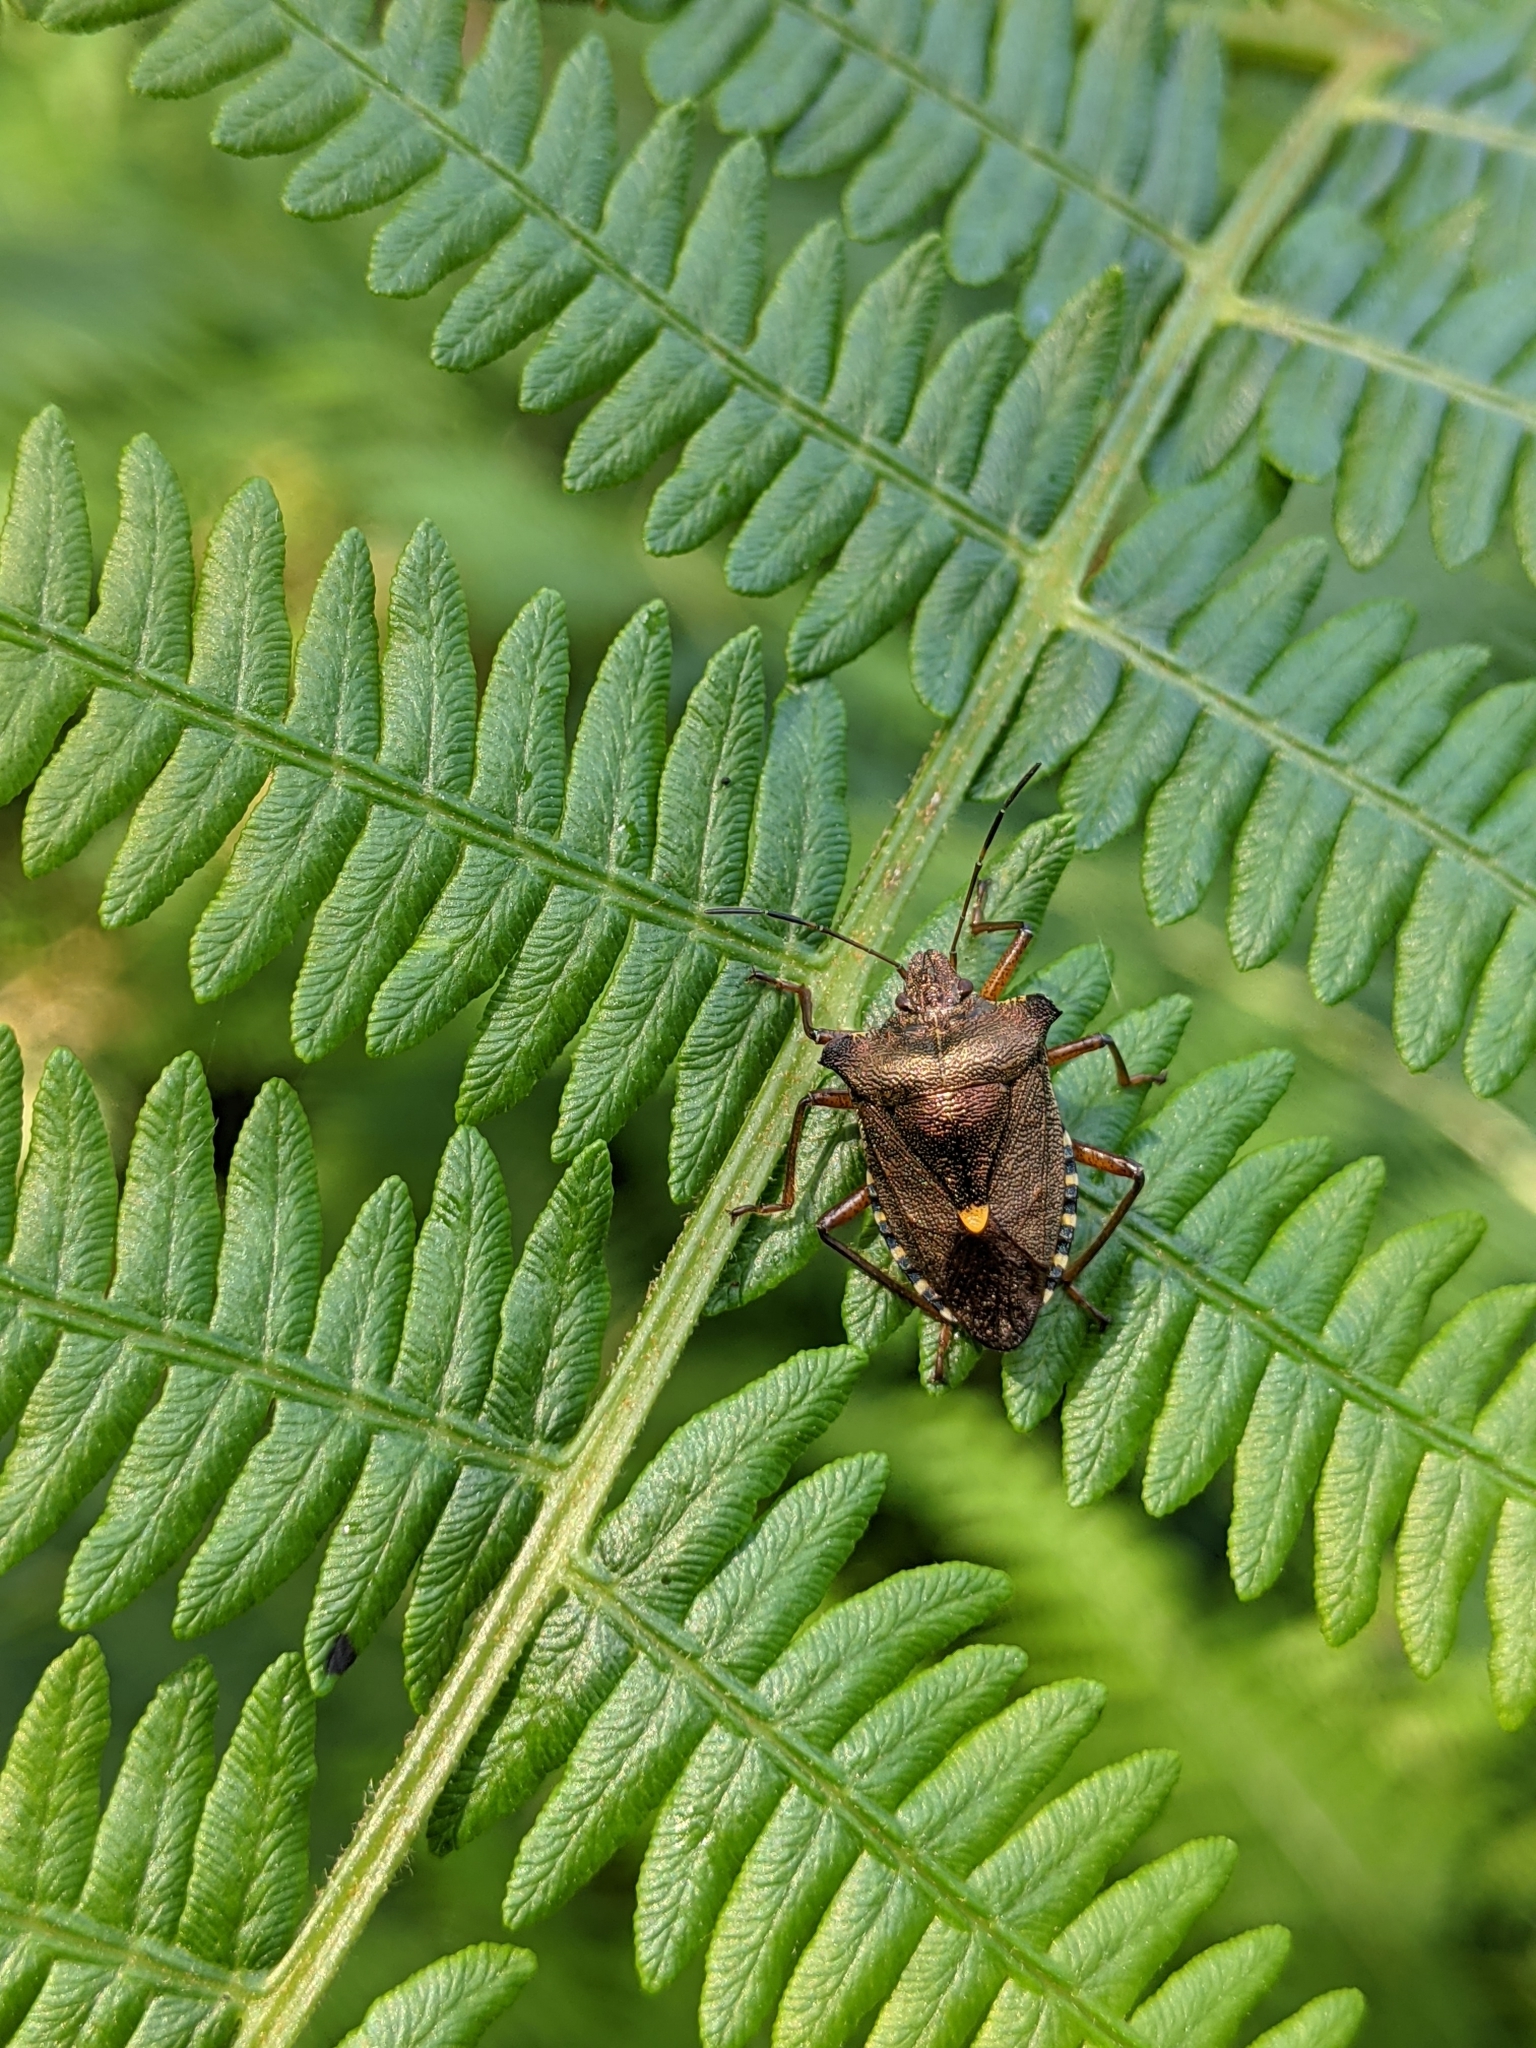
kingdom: Animalia
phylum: Arthropoda
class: Insecta
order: Hemiptera
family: Pentatomidae
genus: Pentatoma
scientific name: Pentatoma rufipes
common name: Forest bug
